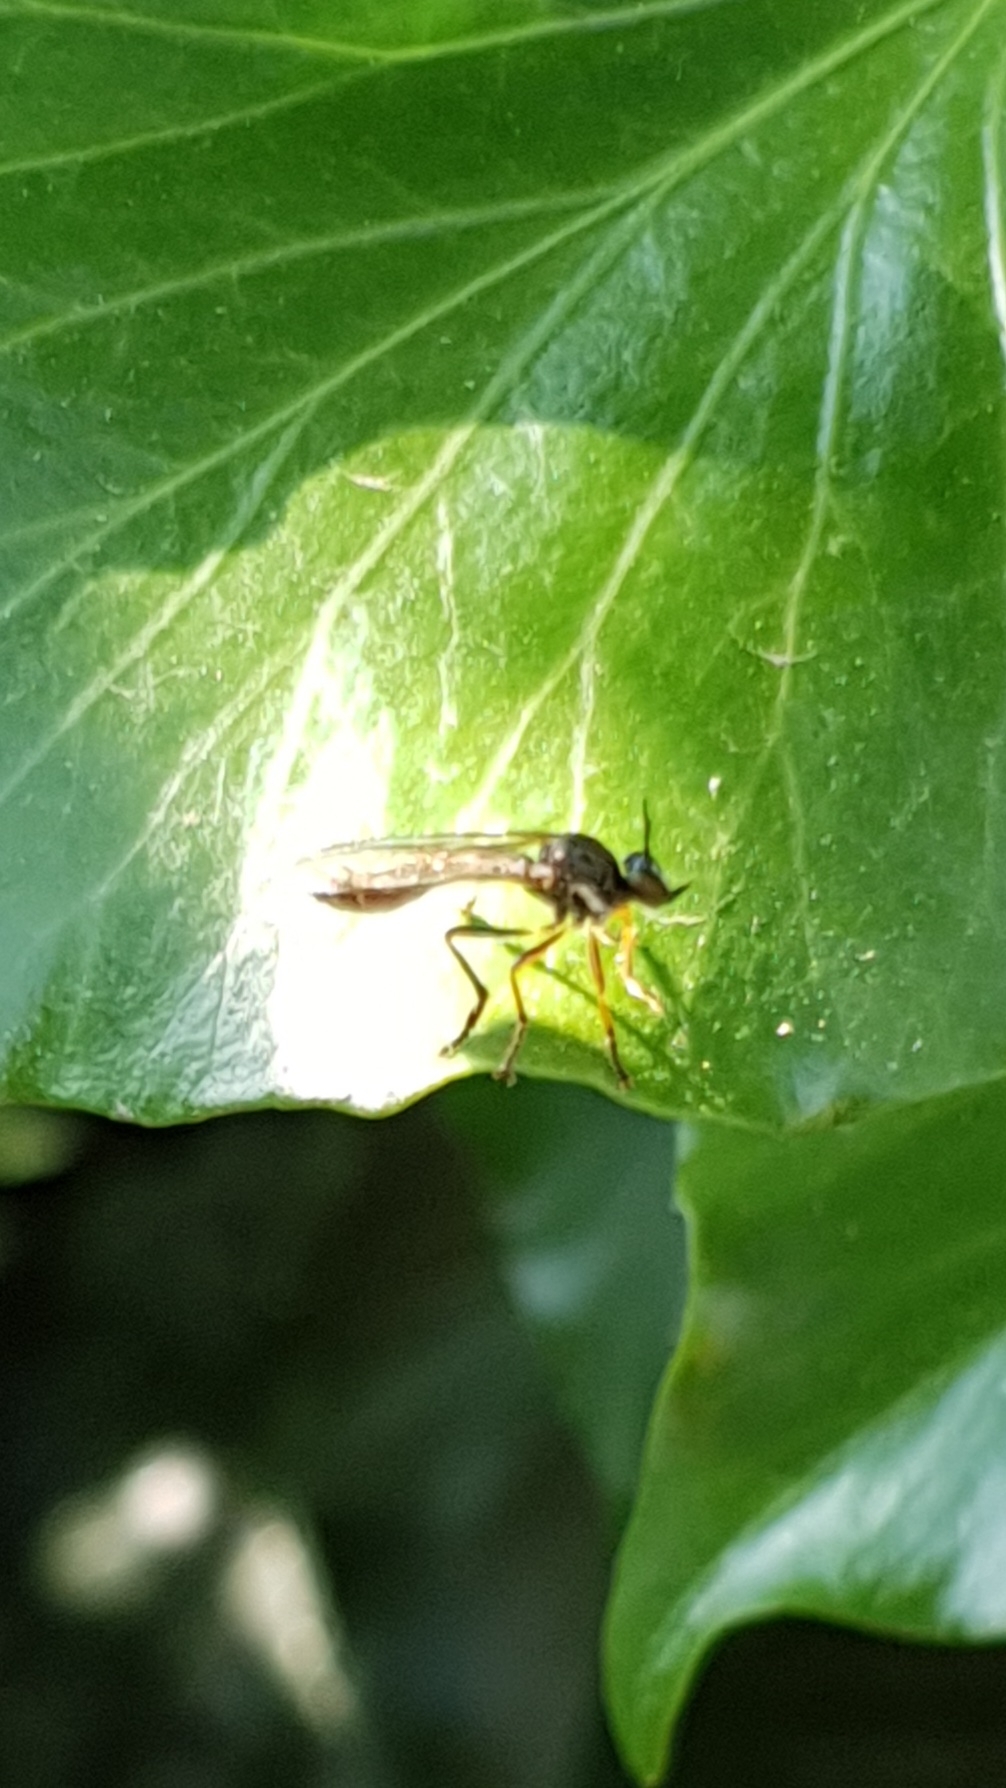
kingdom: Animalia
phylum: Arthropoda
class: Insecta
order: Diptera
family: Asilidae
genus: Dioctria
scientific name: Dioctria hyalipennis
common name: Stripe-legged robberfly
